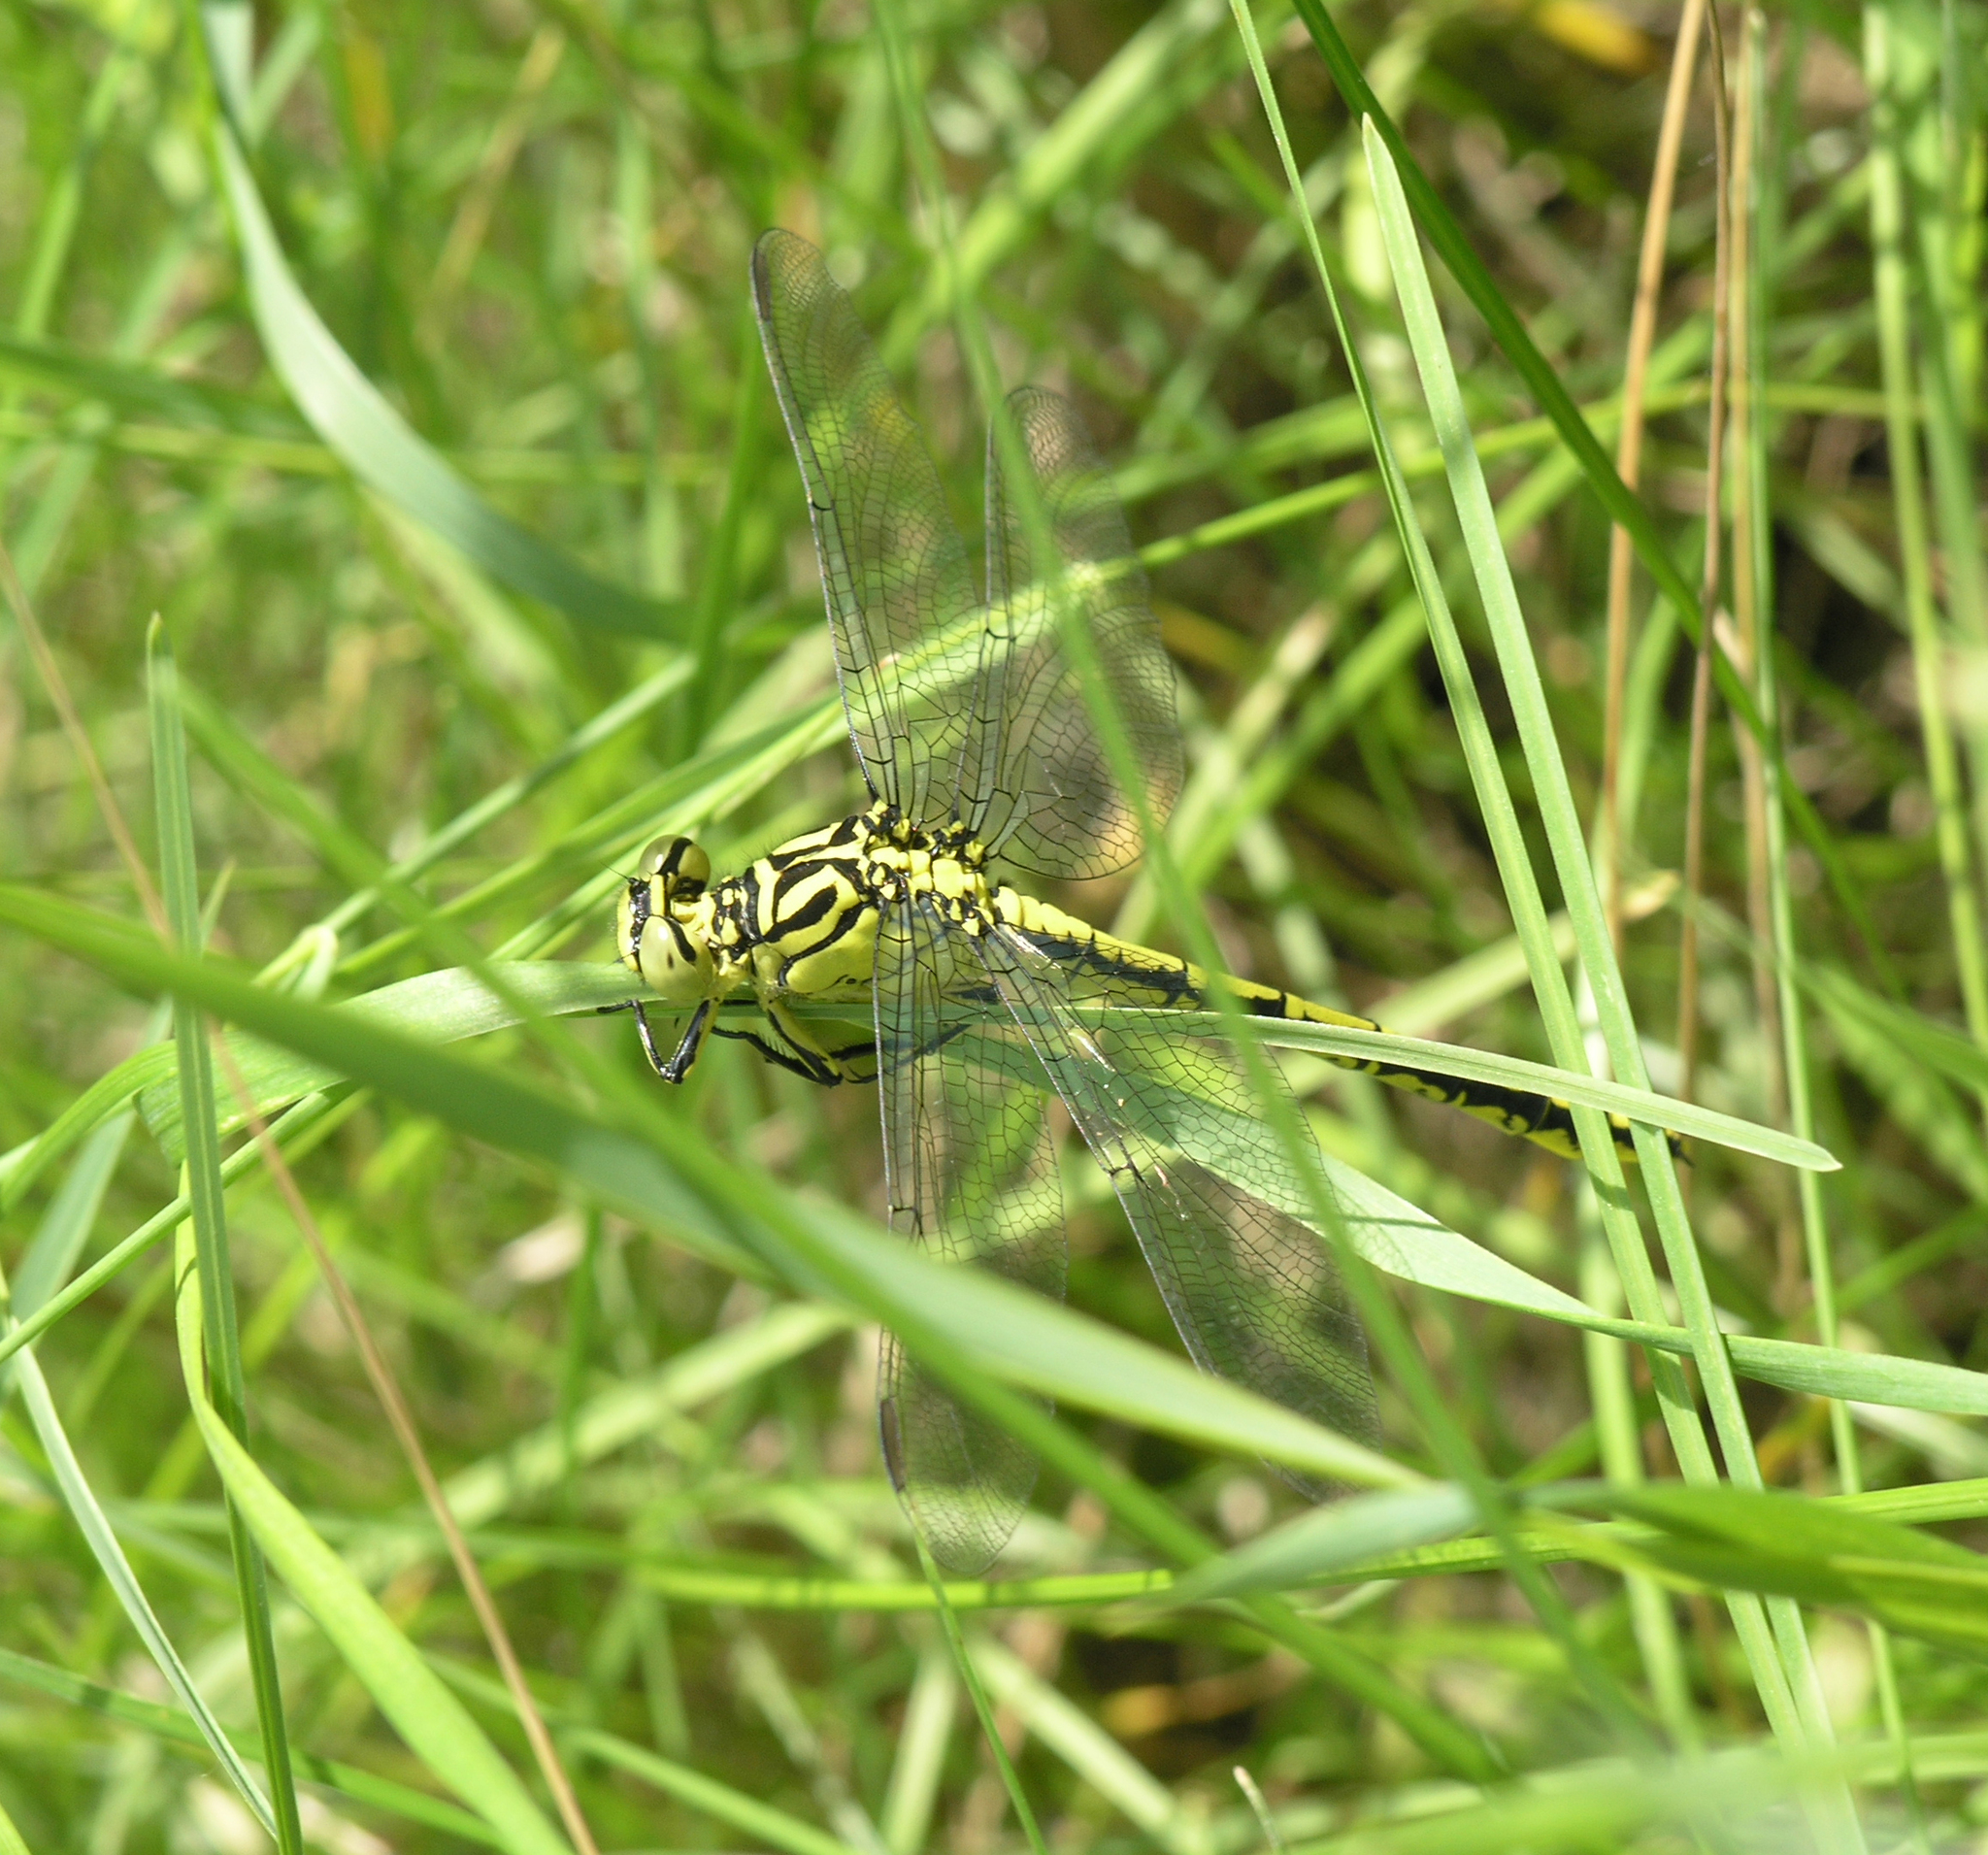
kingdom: Animalia
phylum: Arthropoda
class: Insecta
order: Odonata
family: Gomphidae
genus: Stylurus
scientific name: Stylurus flavipes
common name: River clubtail
